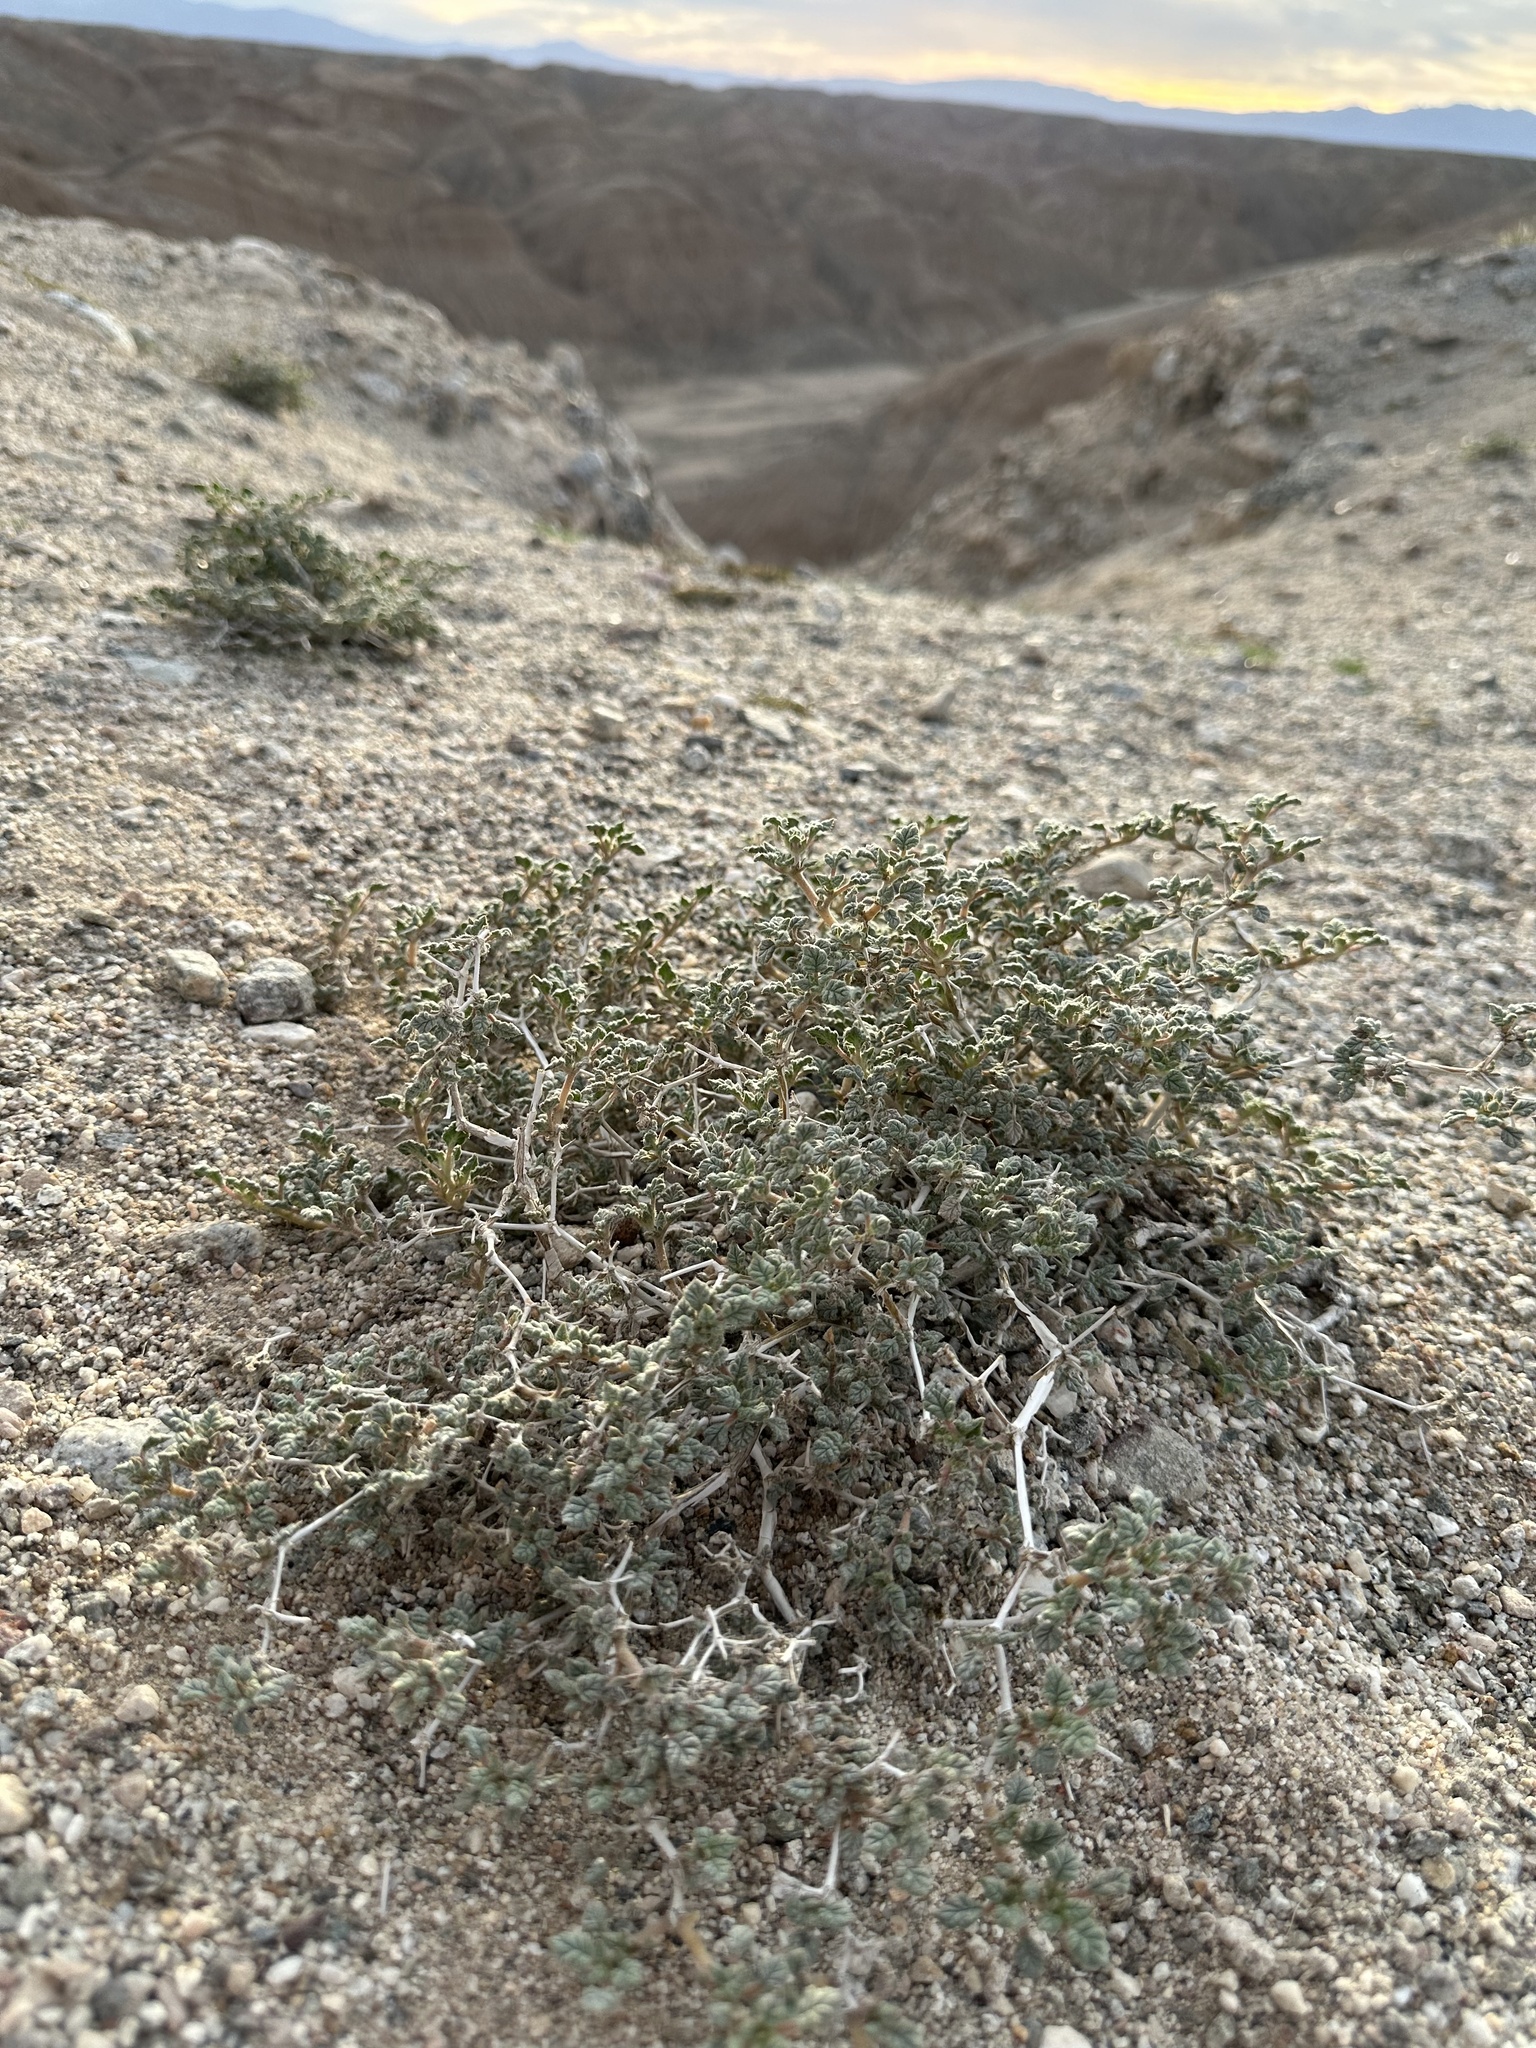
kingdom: Plantae
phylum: Tracheophyta
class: Magnoliopsida
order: Boraginales
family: Ehretiaceae
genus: Tiquilia
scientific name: Tiquilia palmeri
